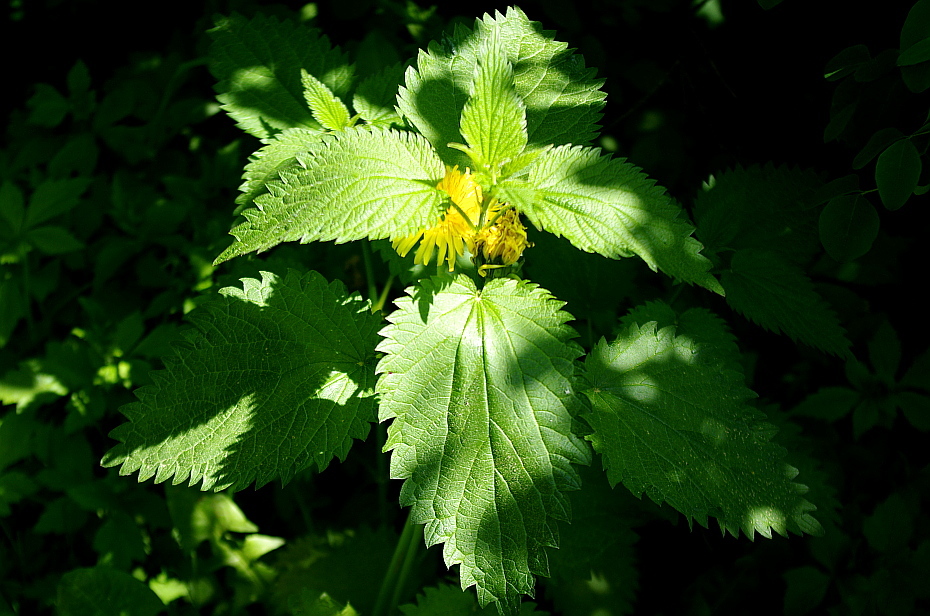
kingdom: Plantae
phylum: Tracheophyta
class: Magnoliopsida
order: Rosales
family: Urticaceae
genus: Urtica
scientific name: Urtica dioica
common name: Common nettle
